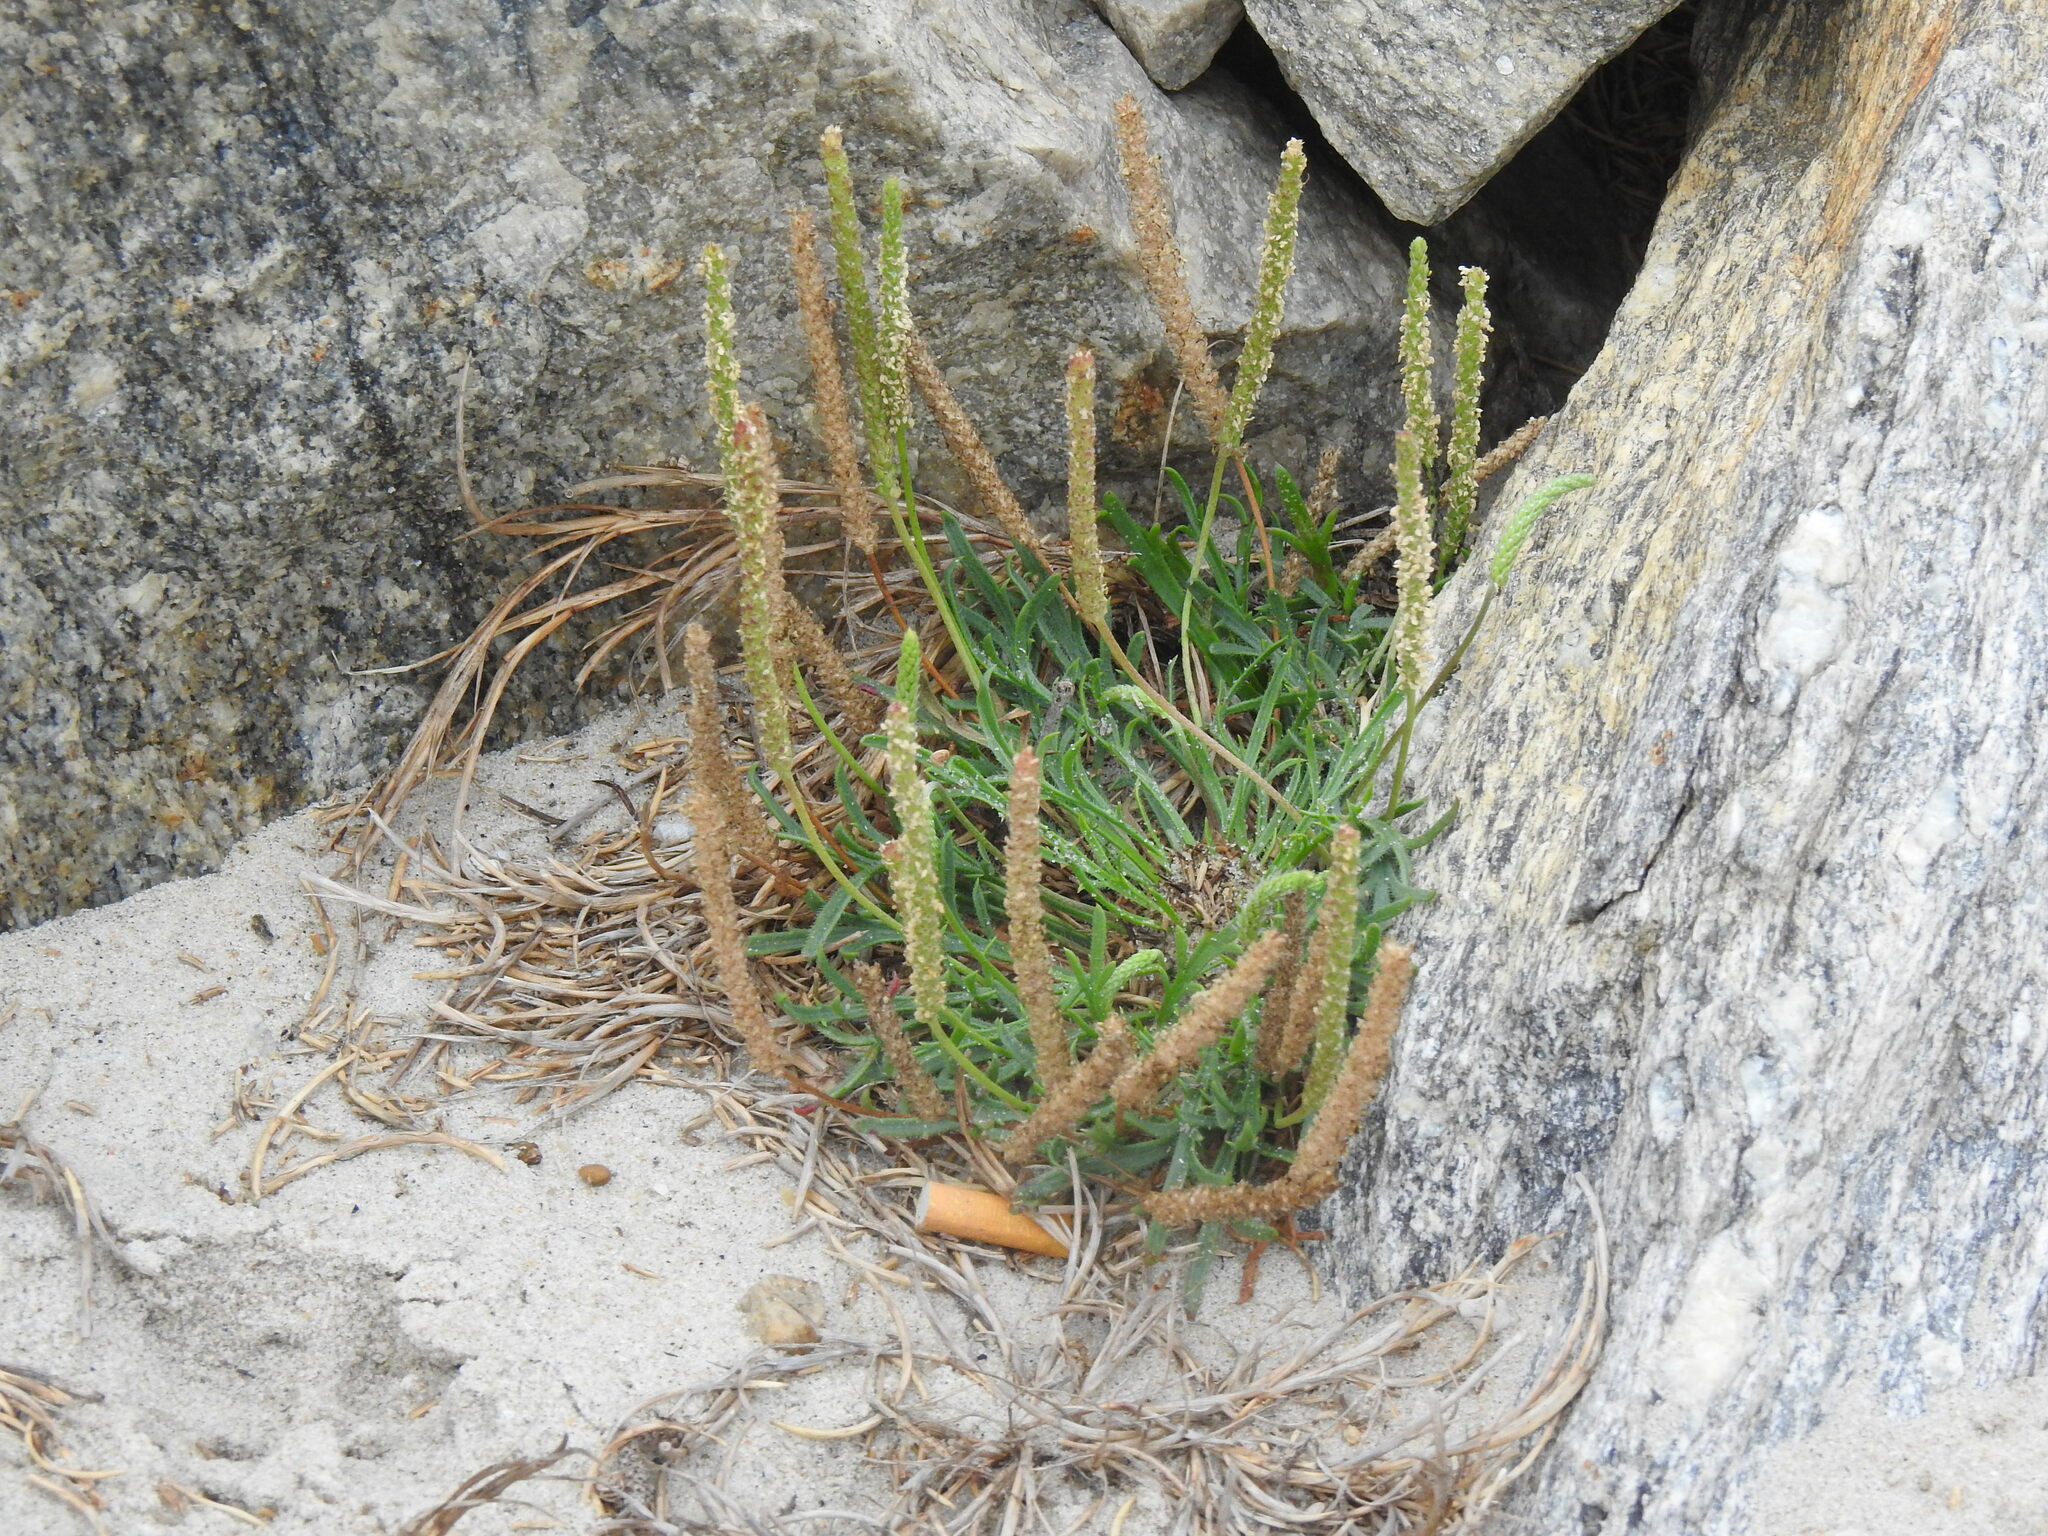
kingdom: Plantae
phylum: Tracheophyta
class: Magnoliopsida
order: Lamiales
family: Plantaginaceae
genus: Plantago
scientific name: Plantago coronopus
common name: Buck's-horn plantain
